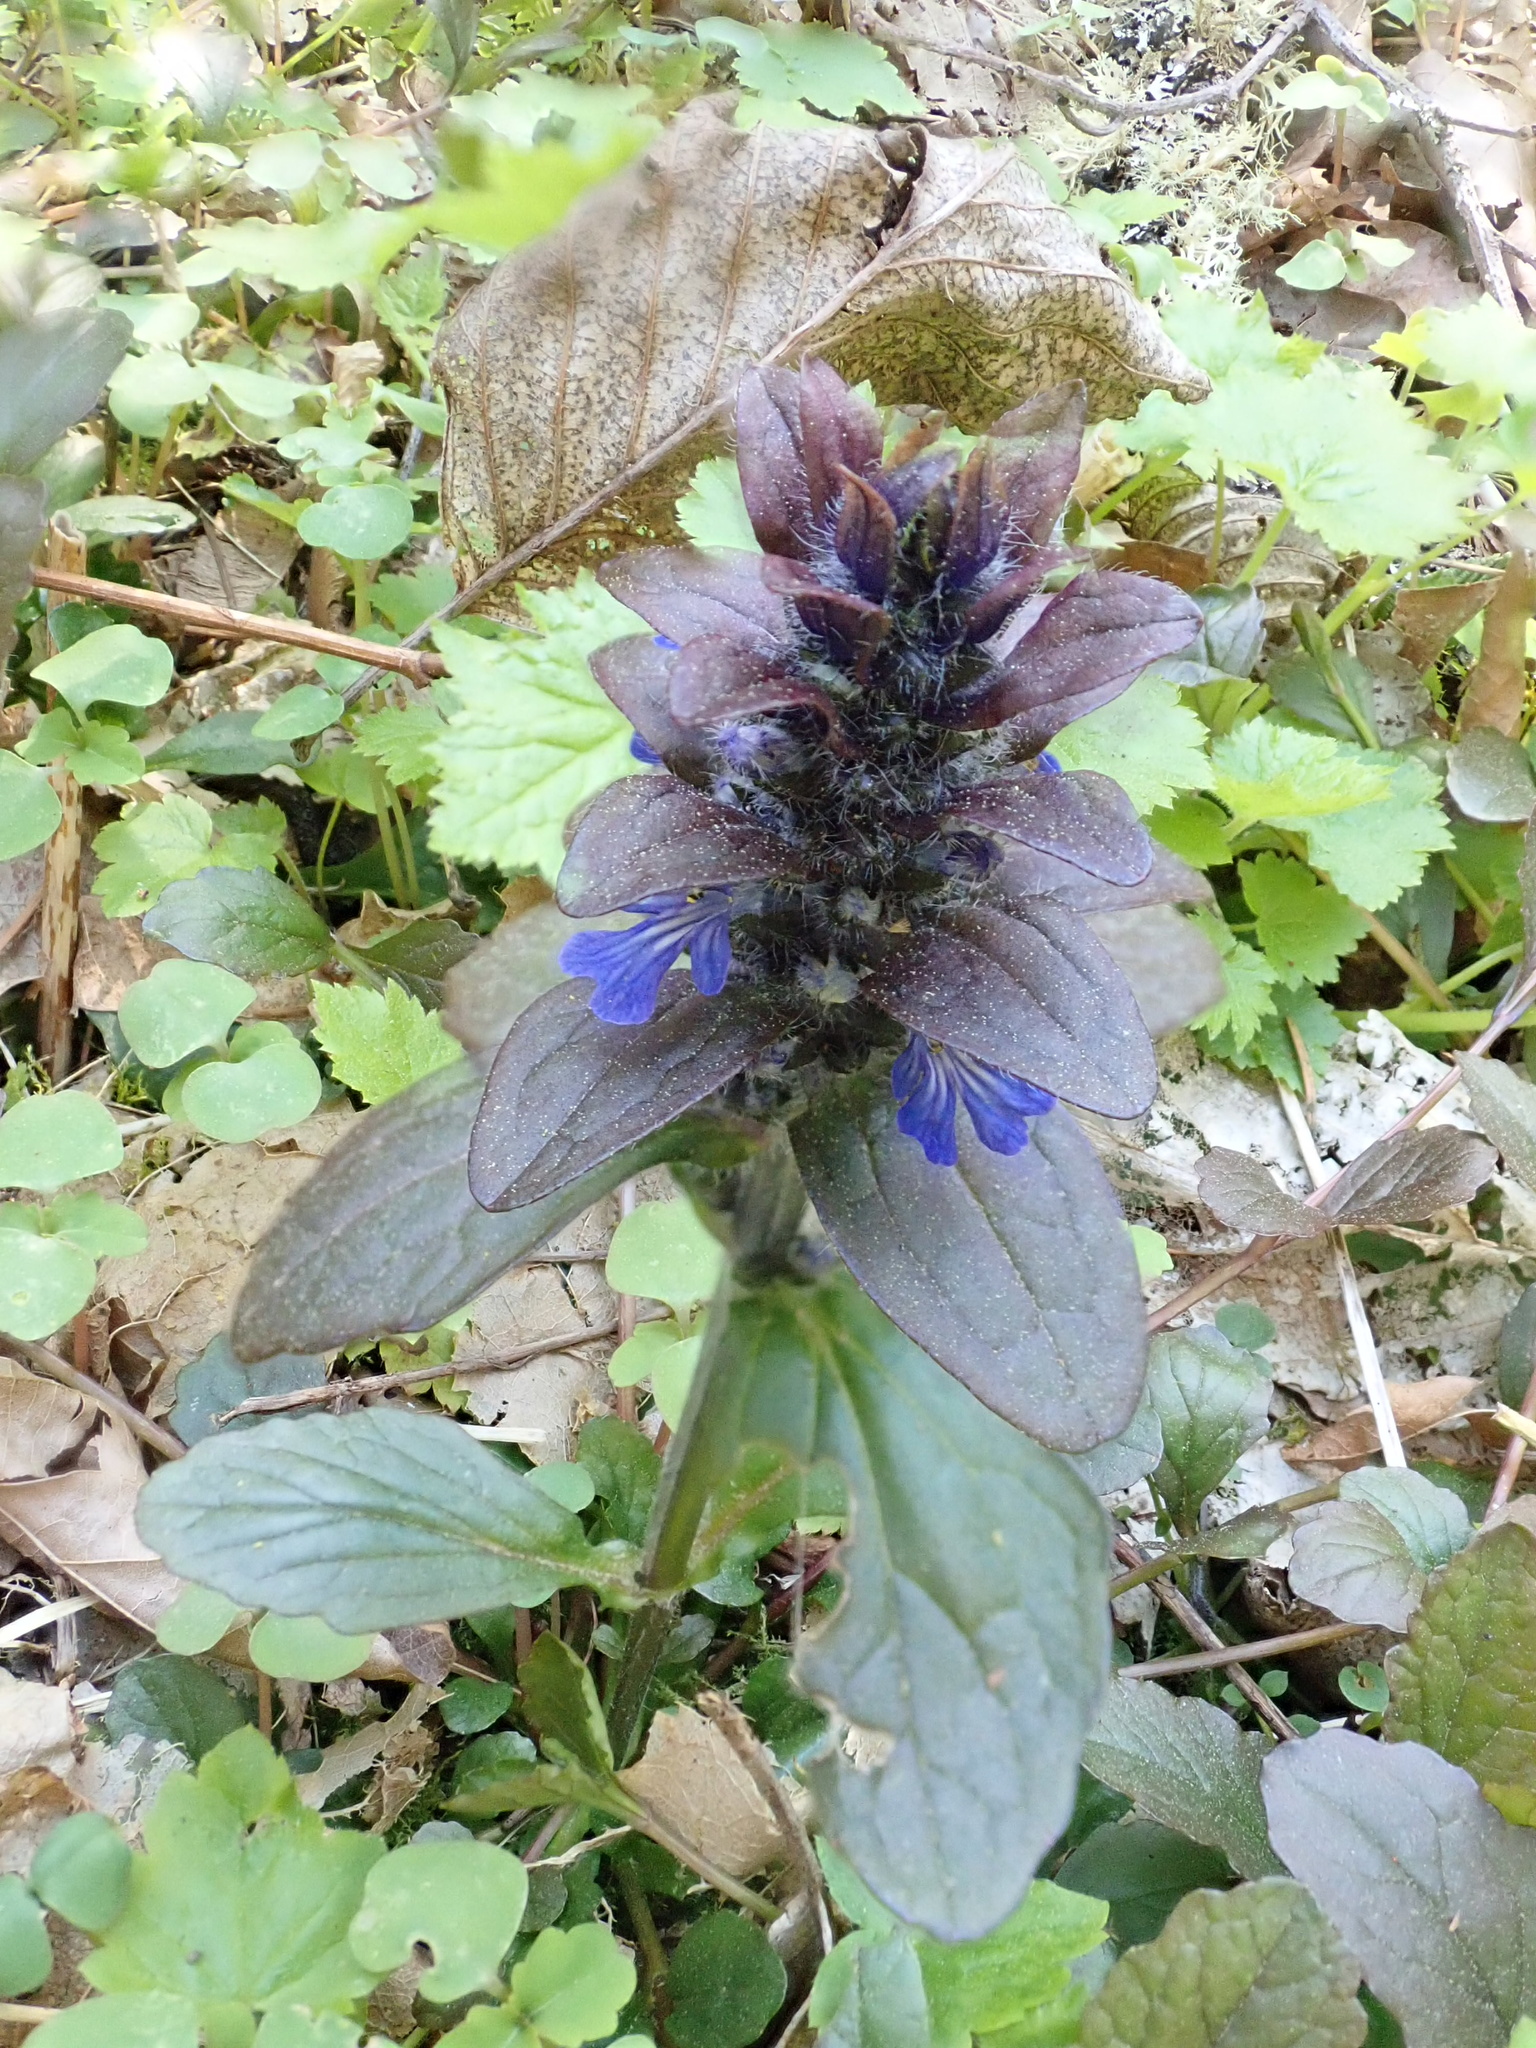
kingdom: Plantae
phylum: Tracheophyta
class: Magnoliopsida
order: Lamiales
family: Lamiaceae
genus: Ajuga
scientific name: Ajuga reptans
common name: Bugle
